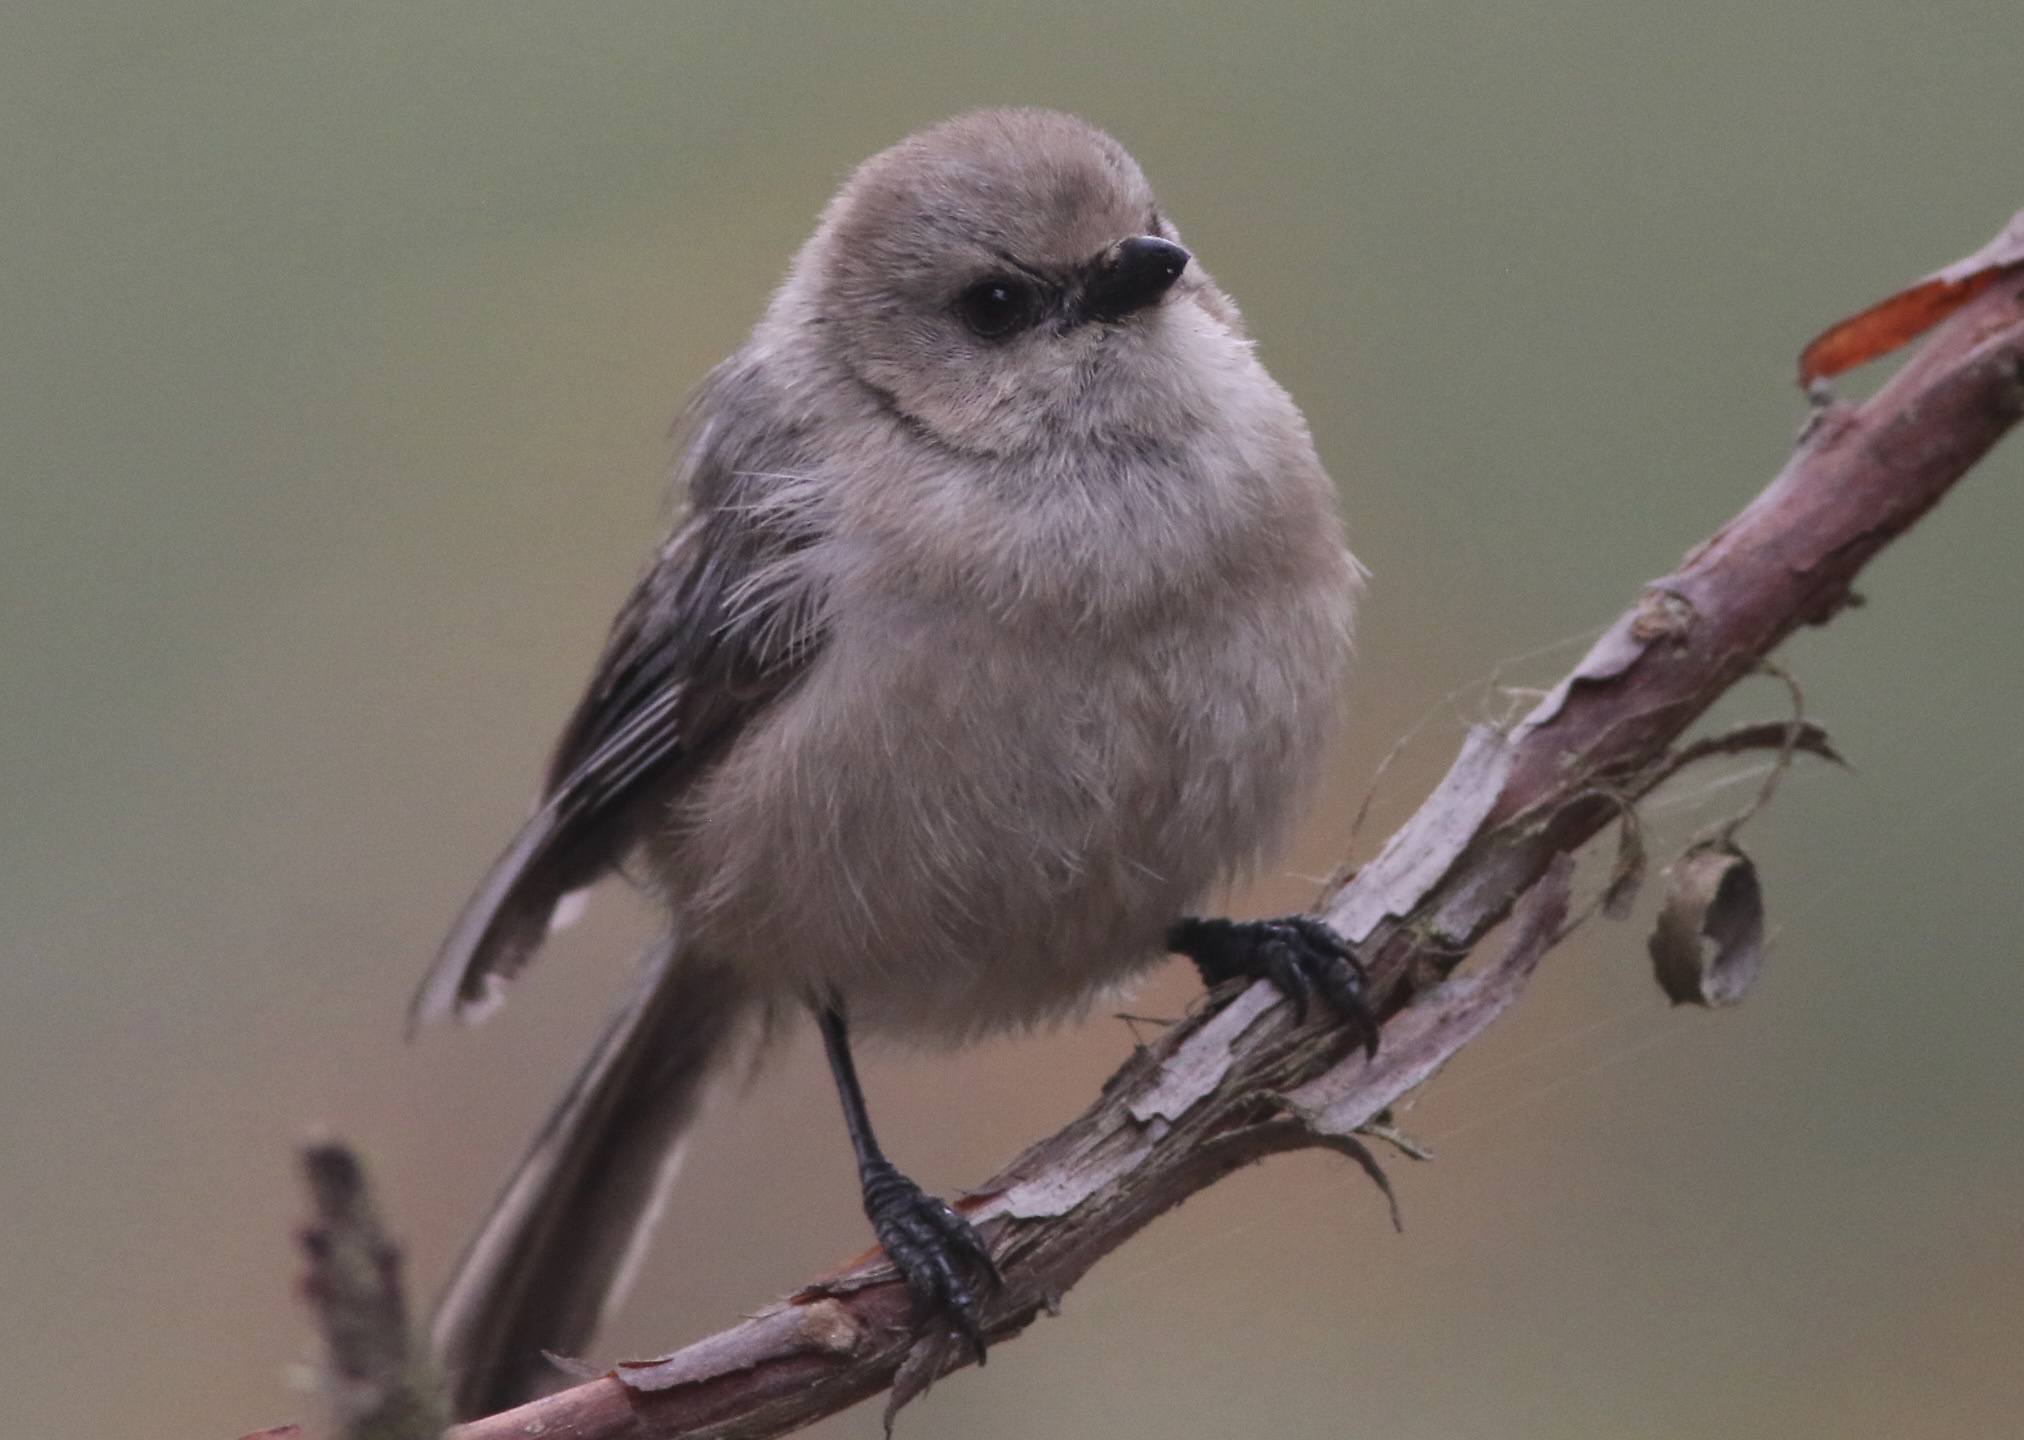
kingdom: Animalia
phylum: Chordata
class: Aves
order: Passeriformes
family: Aegithalidae
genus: Psaltriparus
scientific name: Psaltriparus minimus
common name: American bushtit
